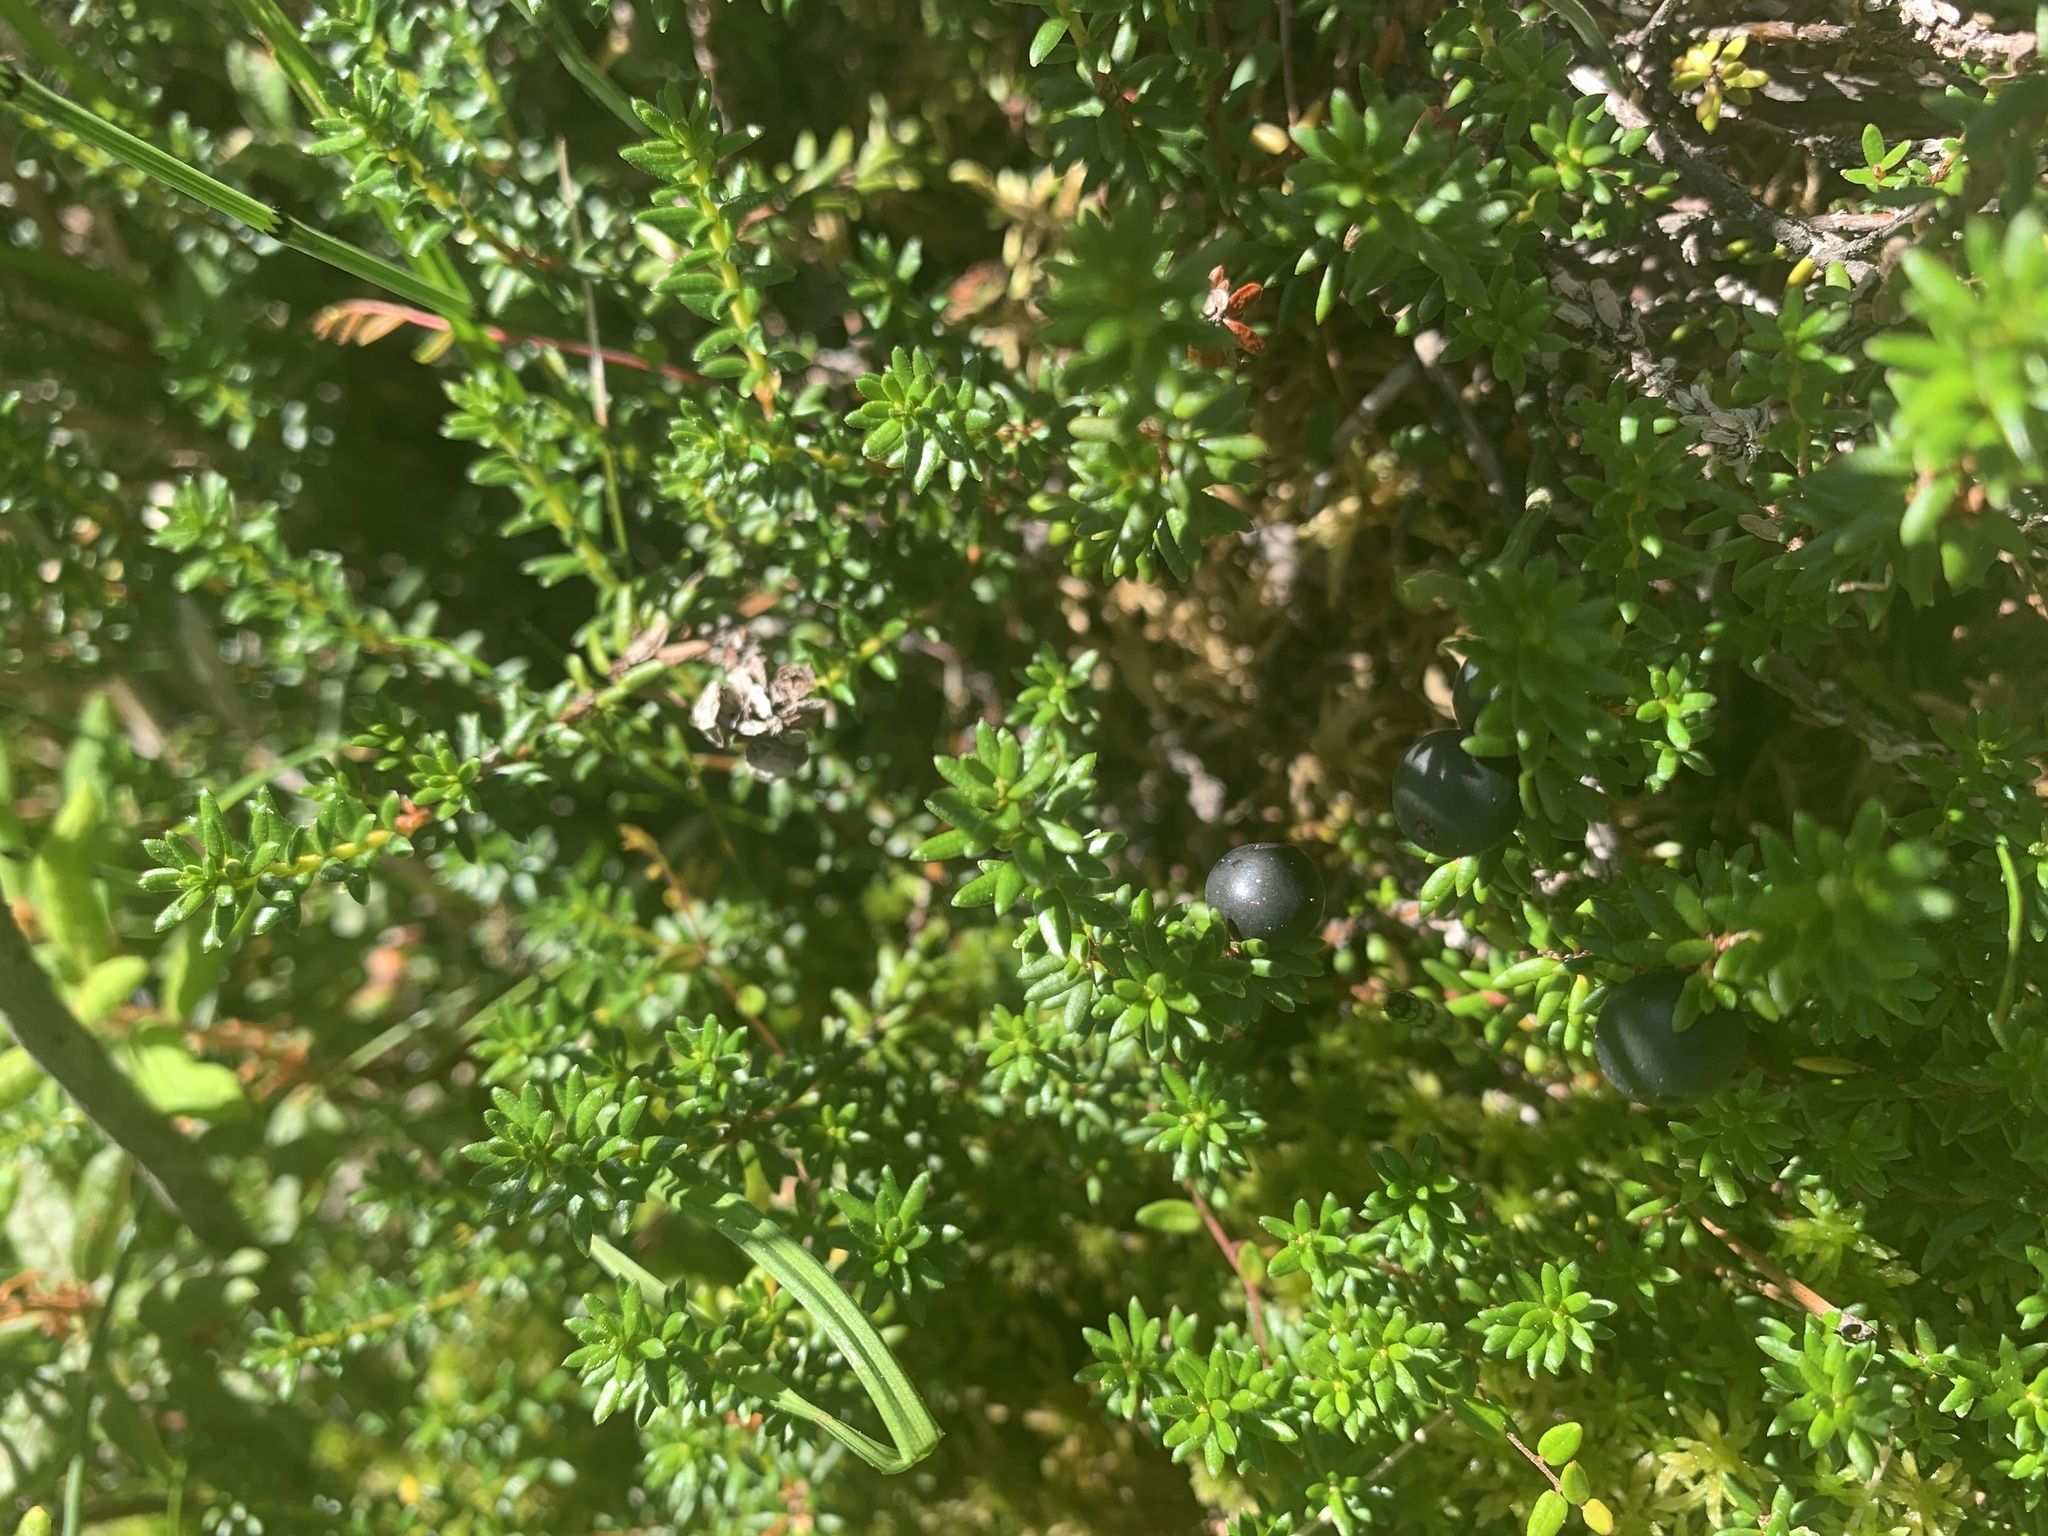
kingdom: Plantae
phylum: Tracheophyta
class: Magnoliopsida
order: Ericales
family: Ericaceae
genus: Empetrum
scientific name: Empetrum nigrum
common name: Black crowberry
